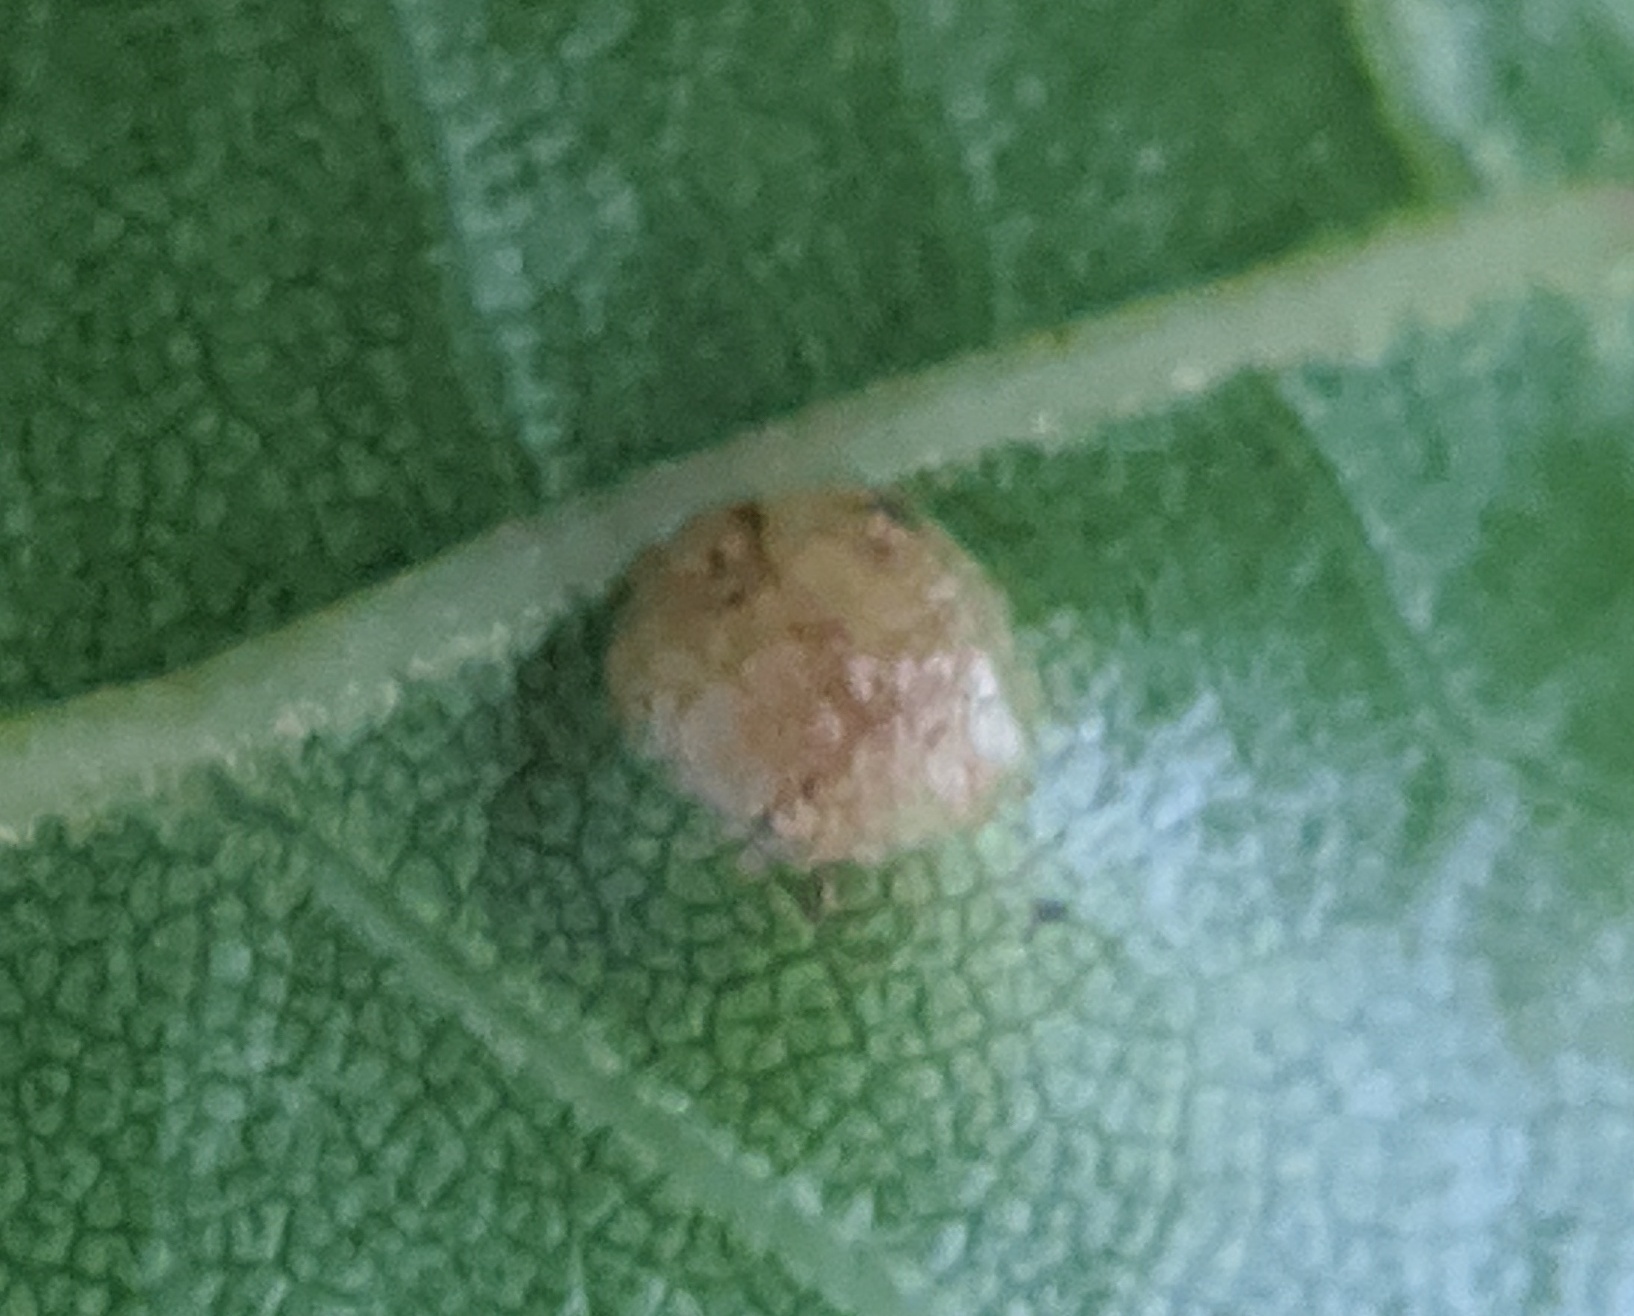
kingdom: Animalia
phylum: Arthropoda
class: Insecta
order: Diptera
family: Cecidomyiidae
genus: Polystepha
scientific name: Polystepha pilulae
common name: Oak leaf gall midge
